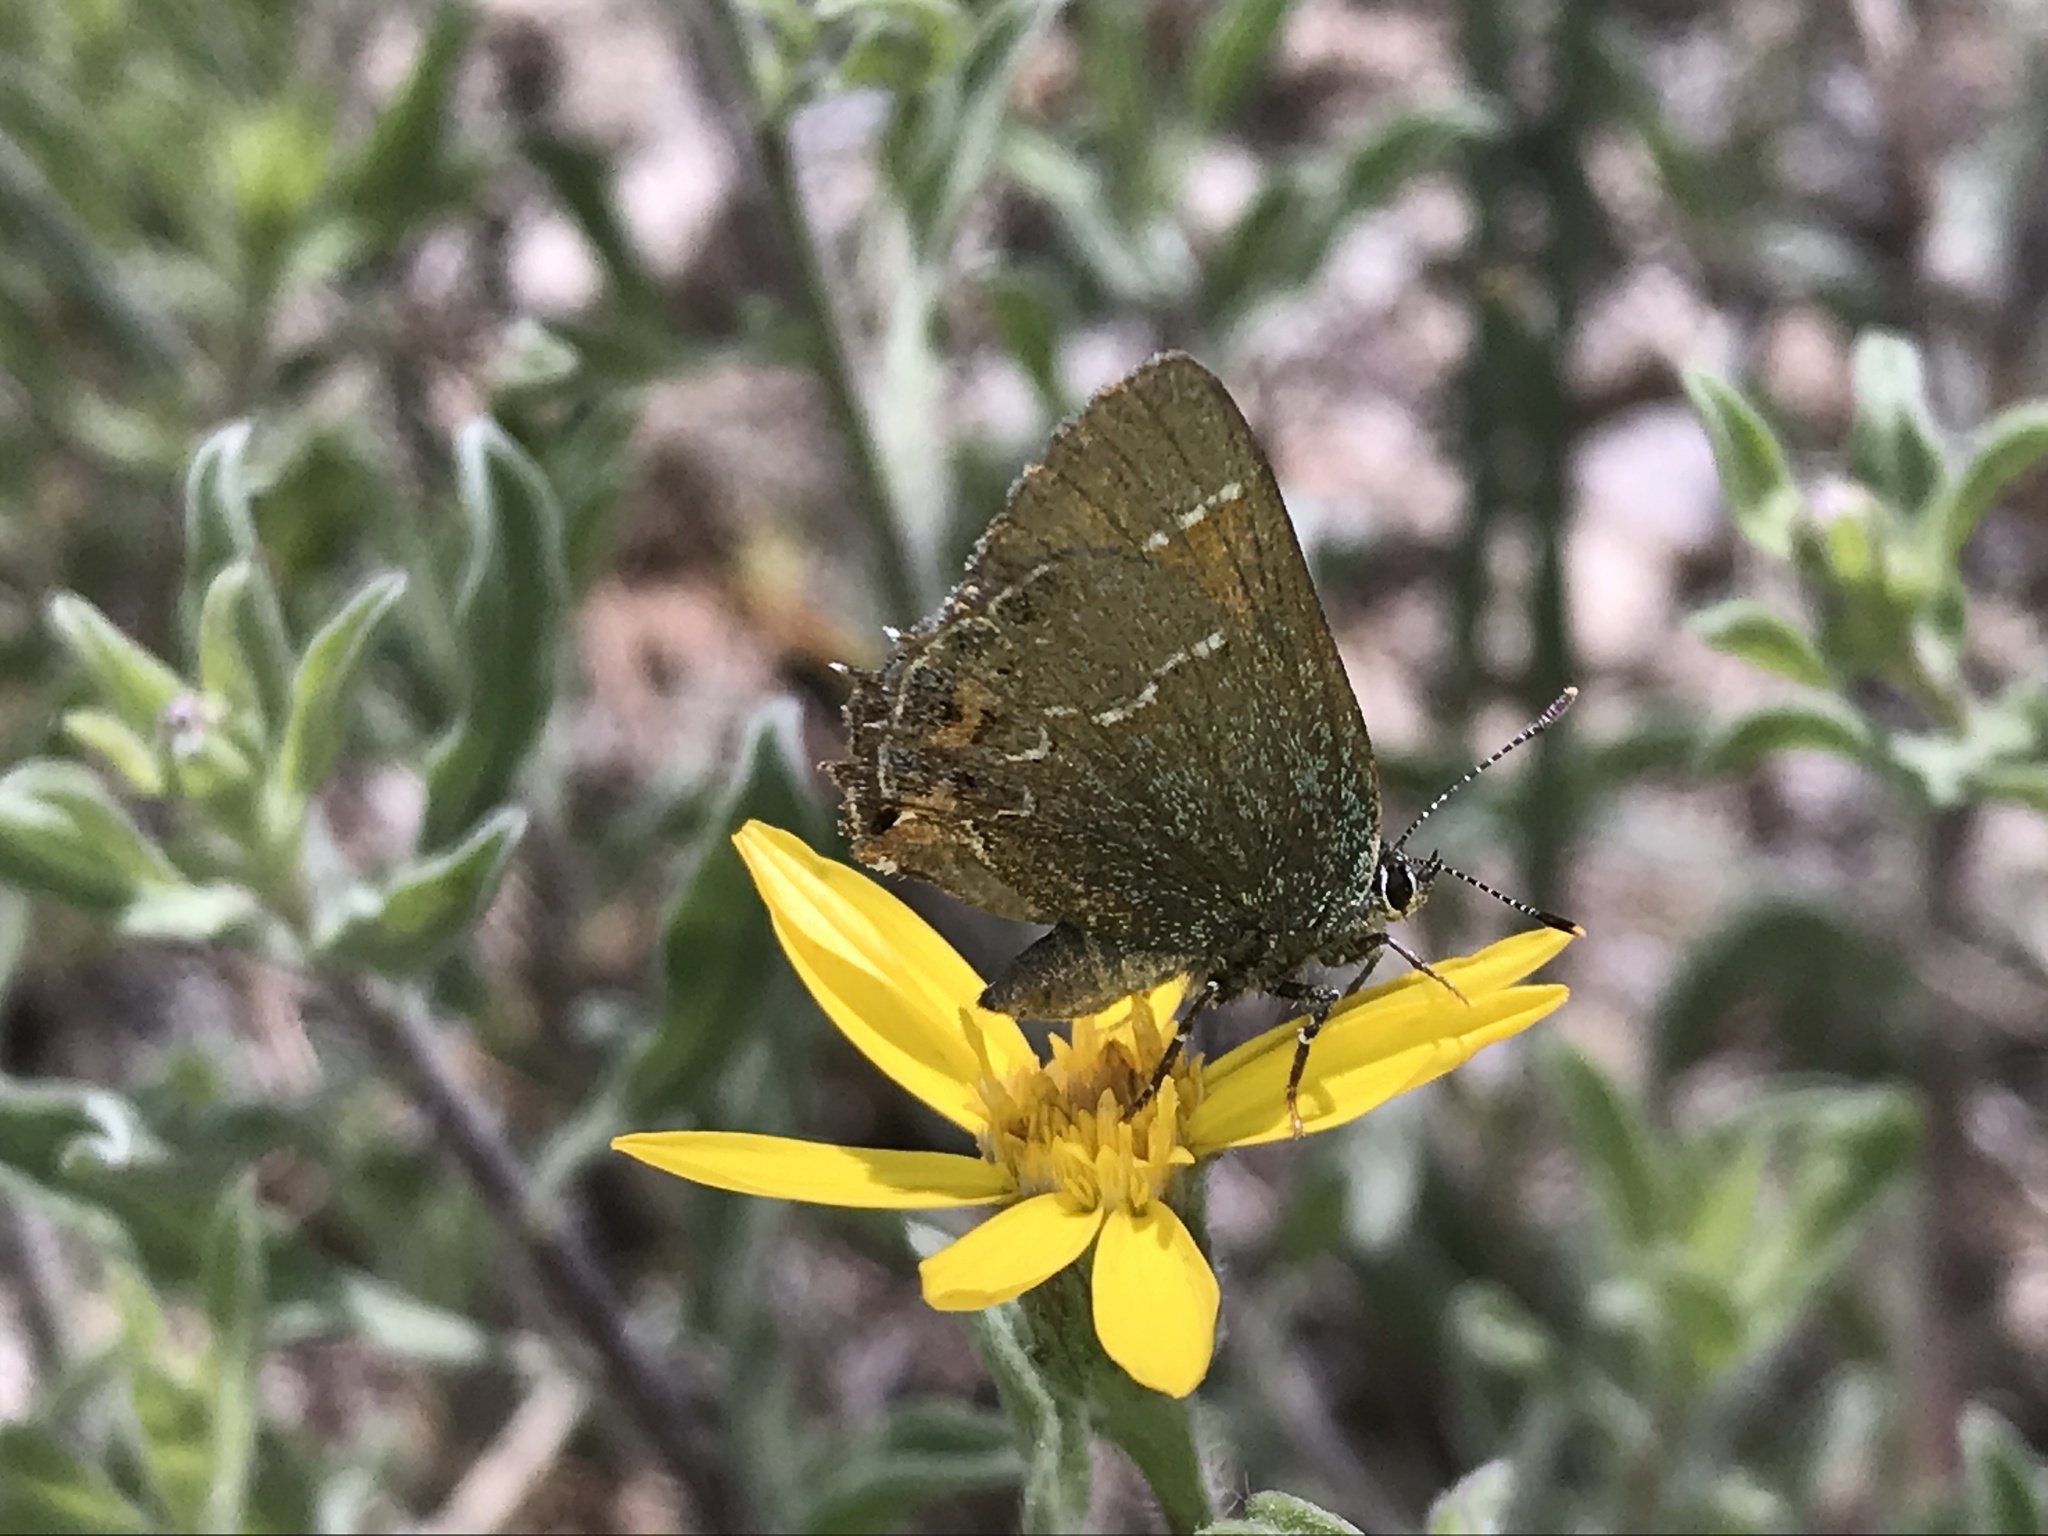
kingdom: Animalia
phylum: Arthropoda
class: Insecta
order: Lepidoptera
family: Lycaenidae
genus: Mitoura
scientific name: Mitoura siva
